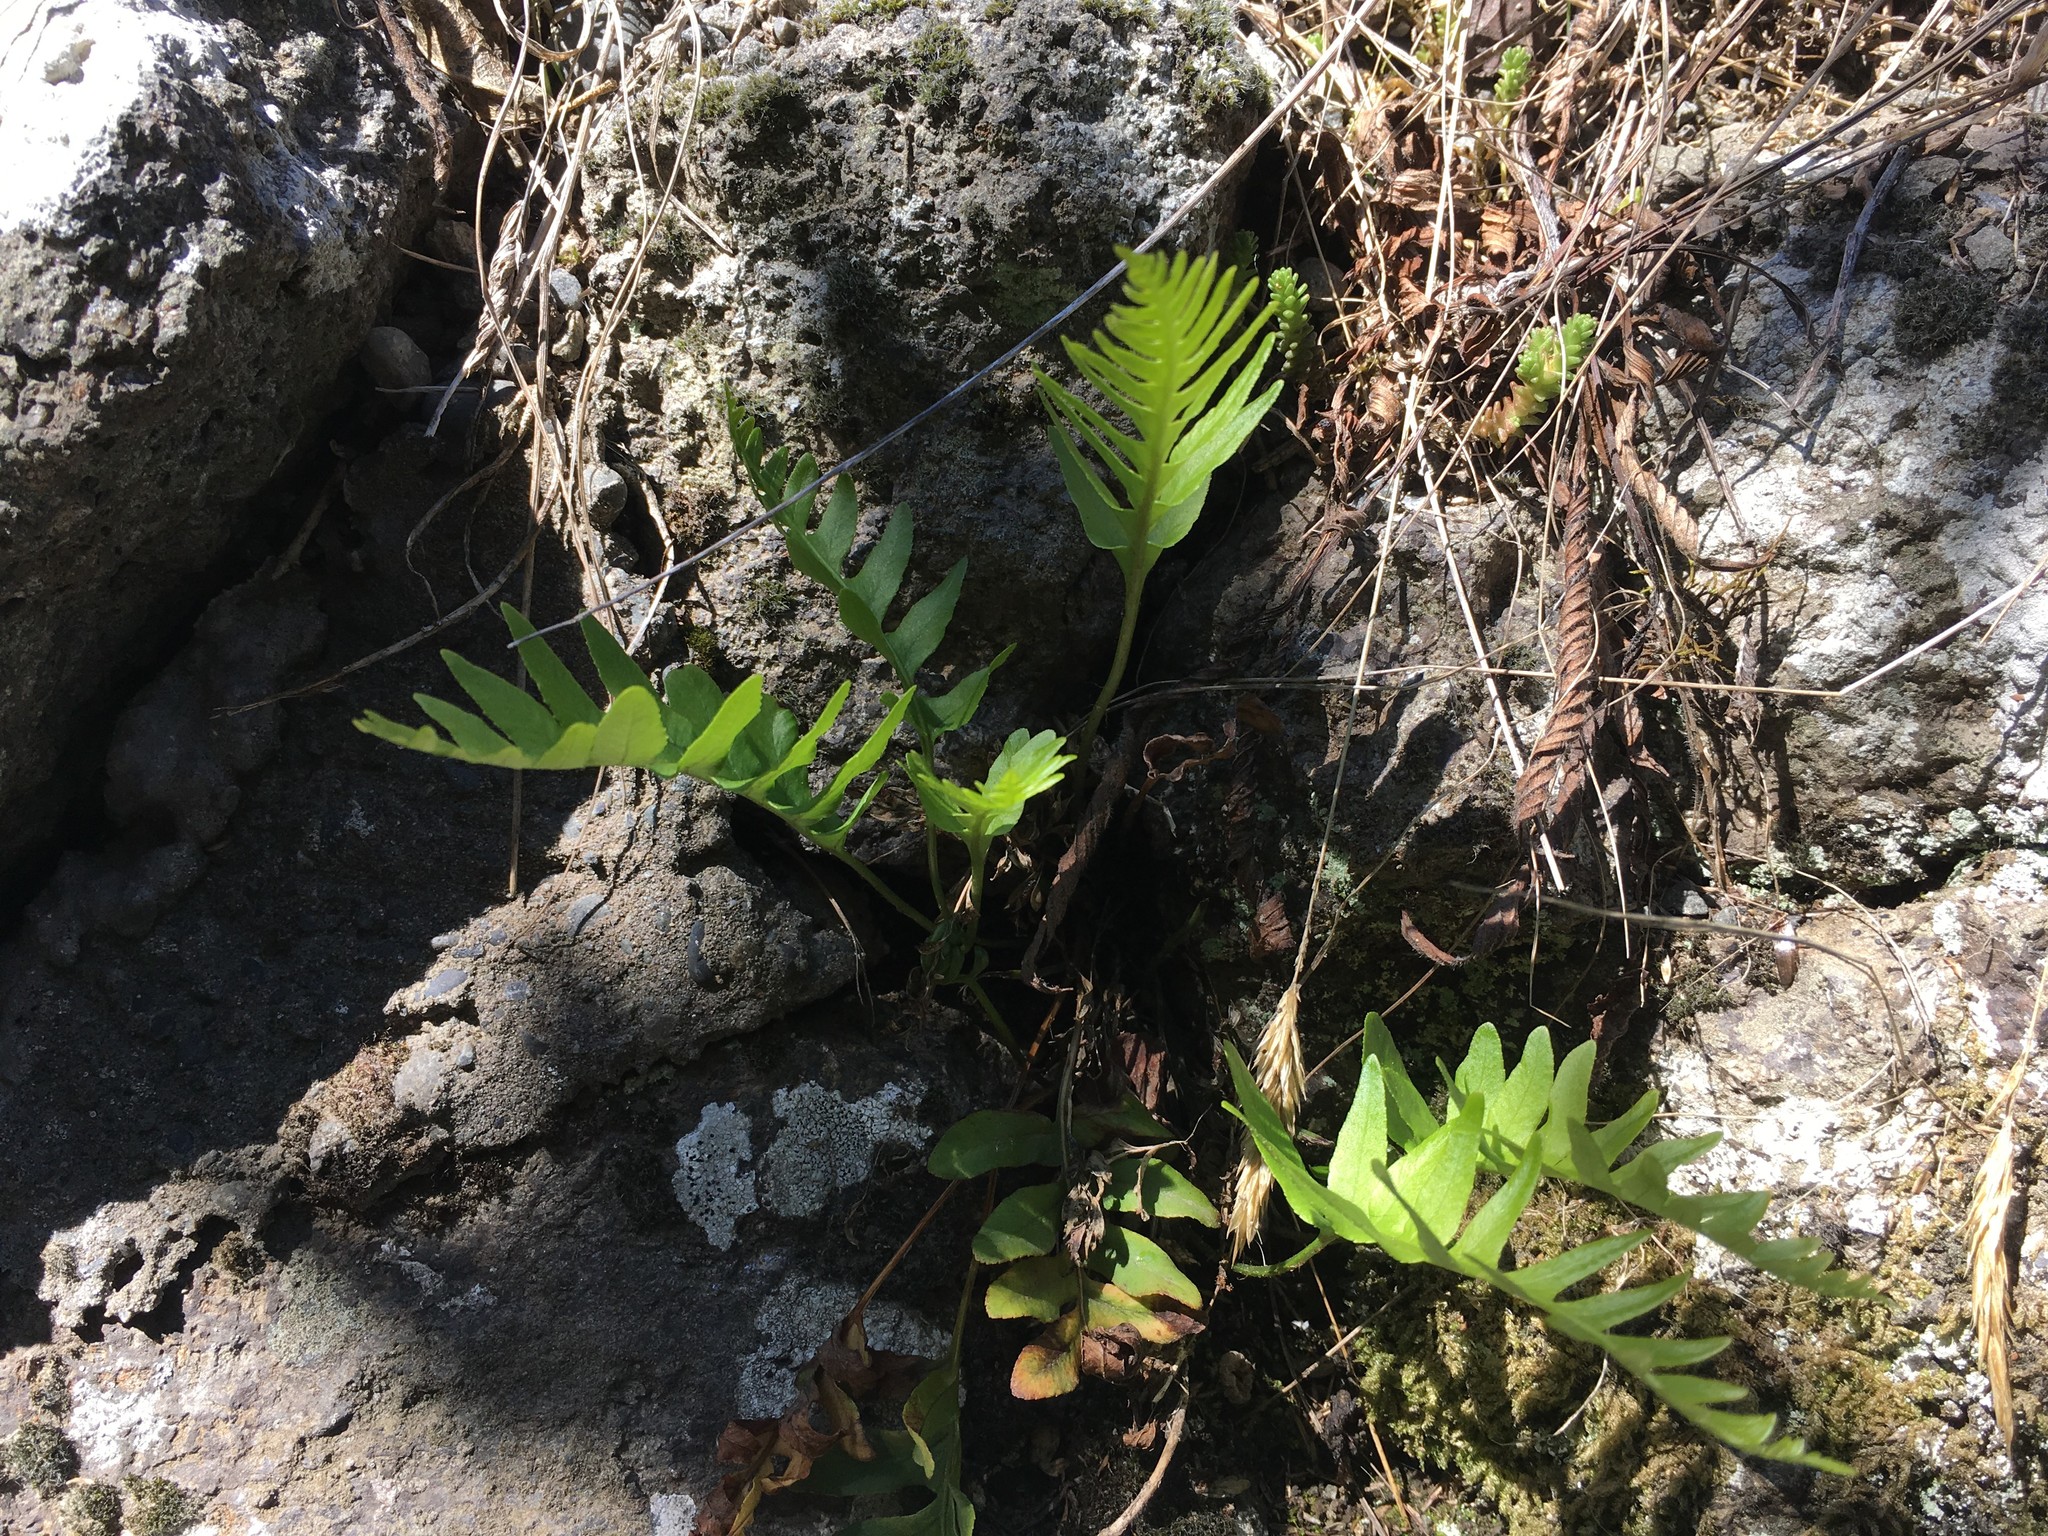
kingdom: Plantae
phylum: Tracheophyta
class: Polypodiopsida
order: Polypodiales
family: Polypodiaceae
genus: Polypodium
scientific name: Polypodium vulgare
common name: Common polypody
